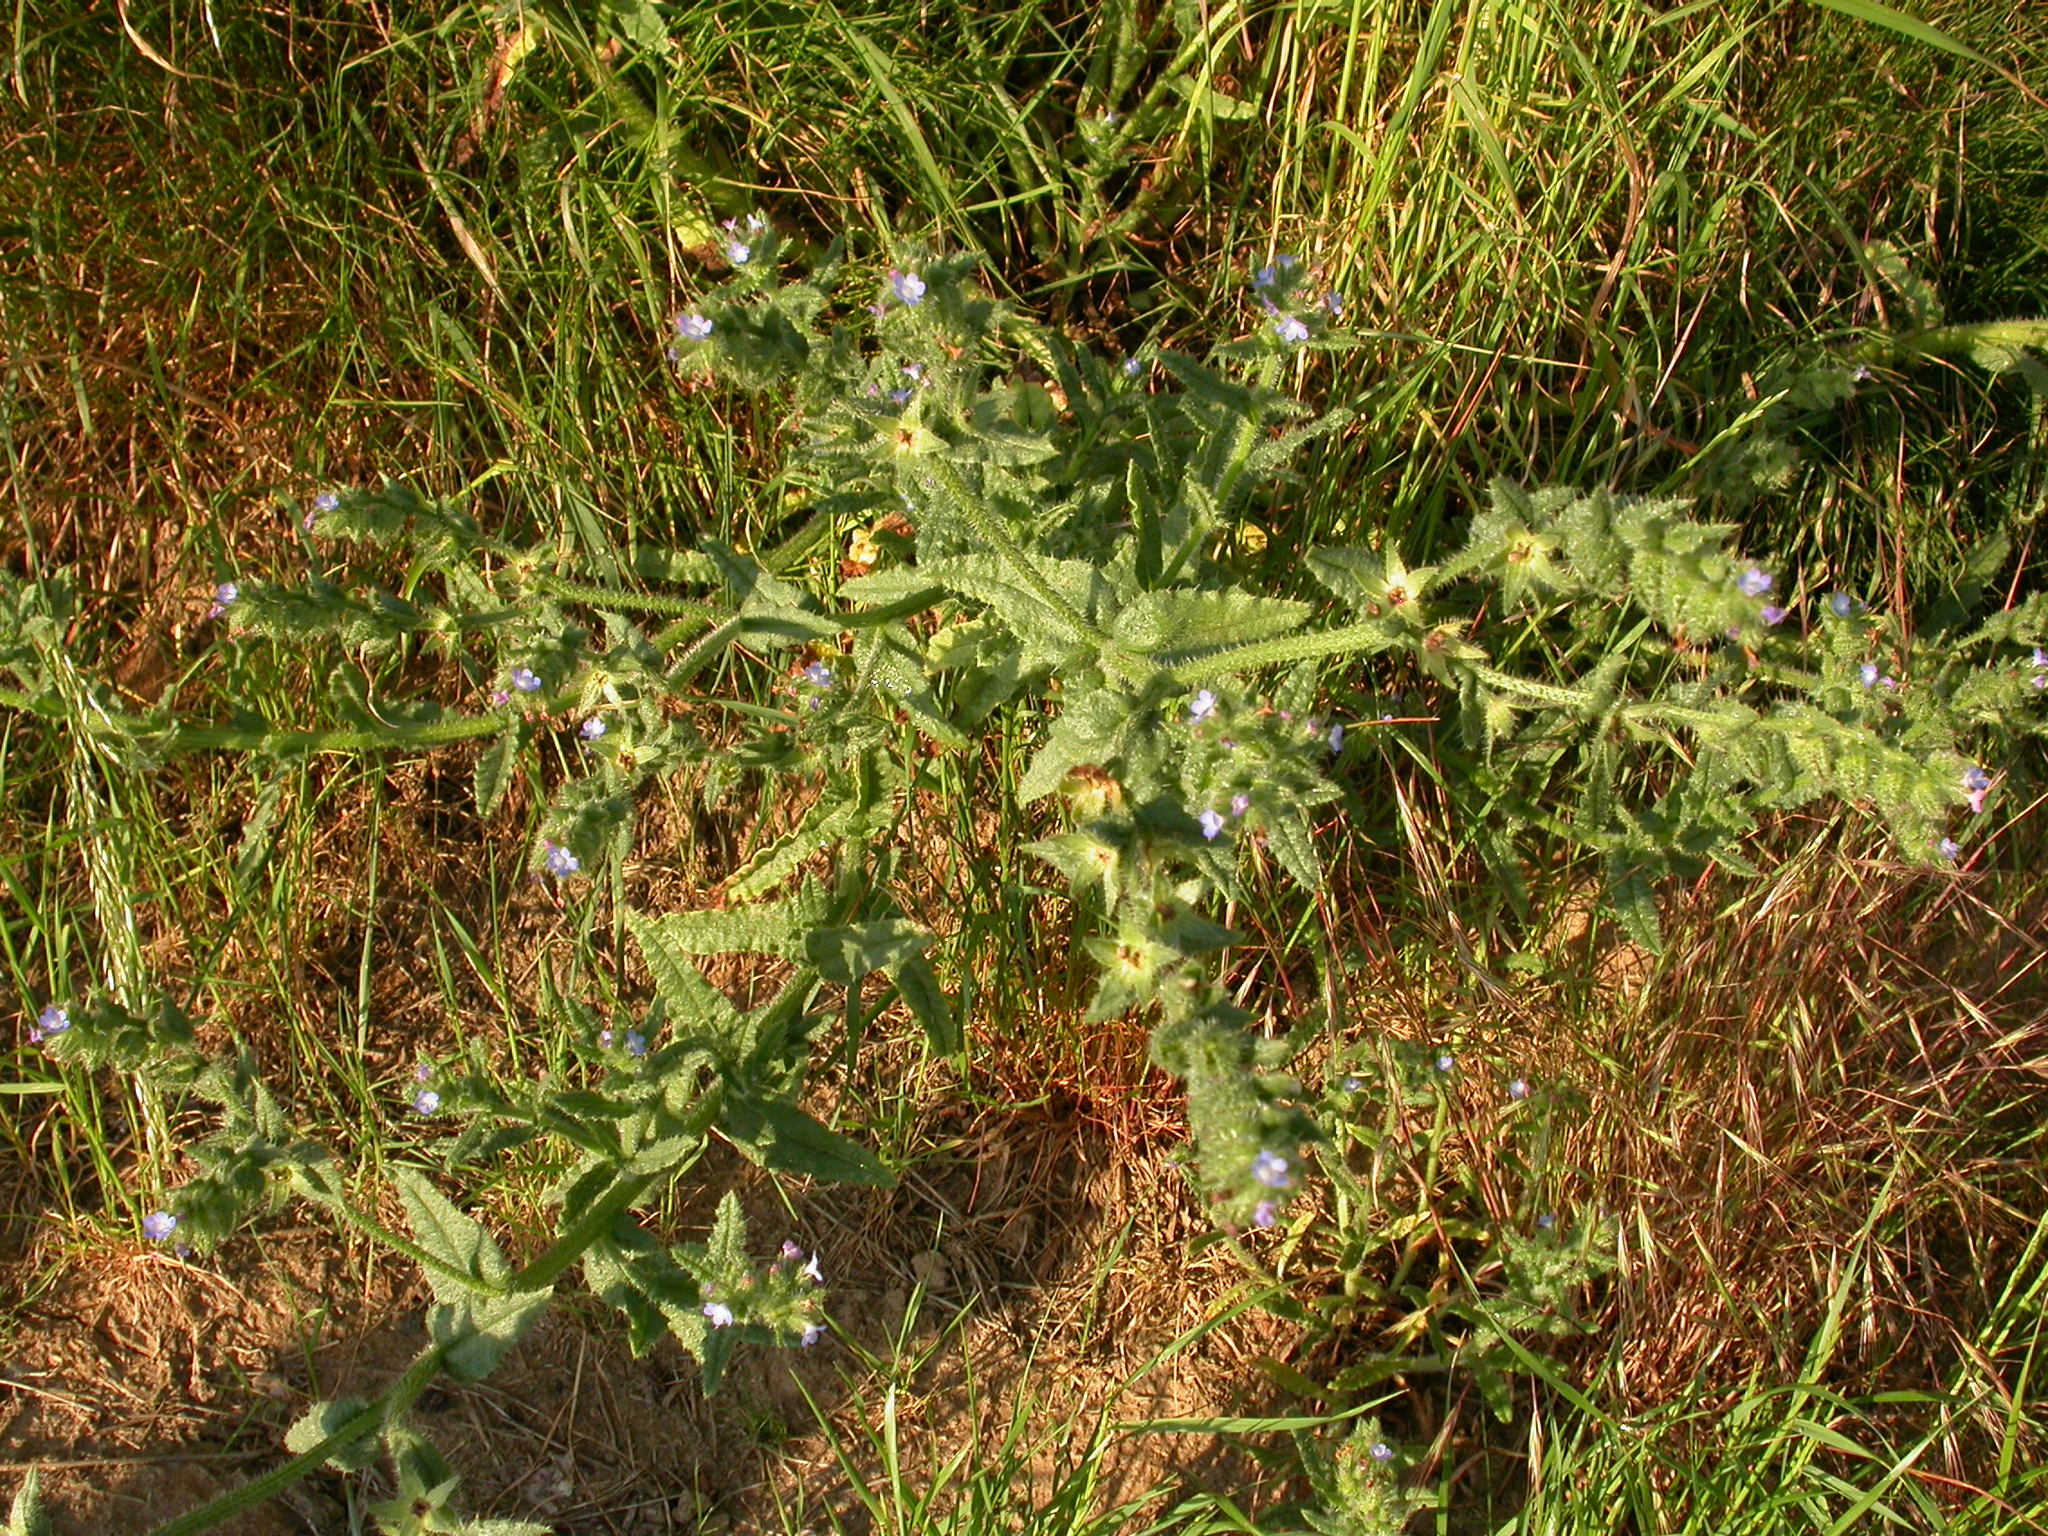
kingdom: Plantae
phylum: Tracheophyta
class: Magnoliopsida
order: Boraginales
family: Boraginaceae
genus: Lycopsis
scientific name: Lycopsis arvensis
